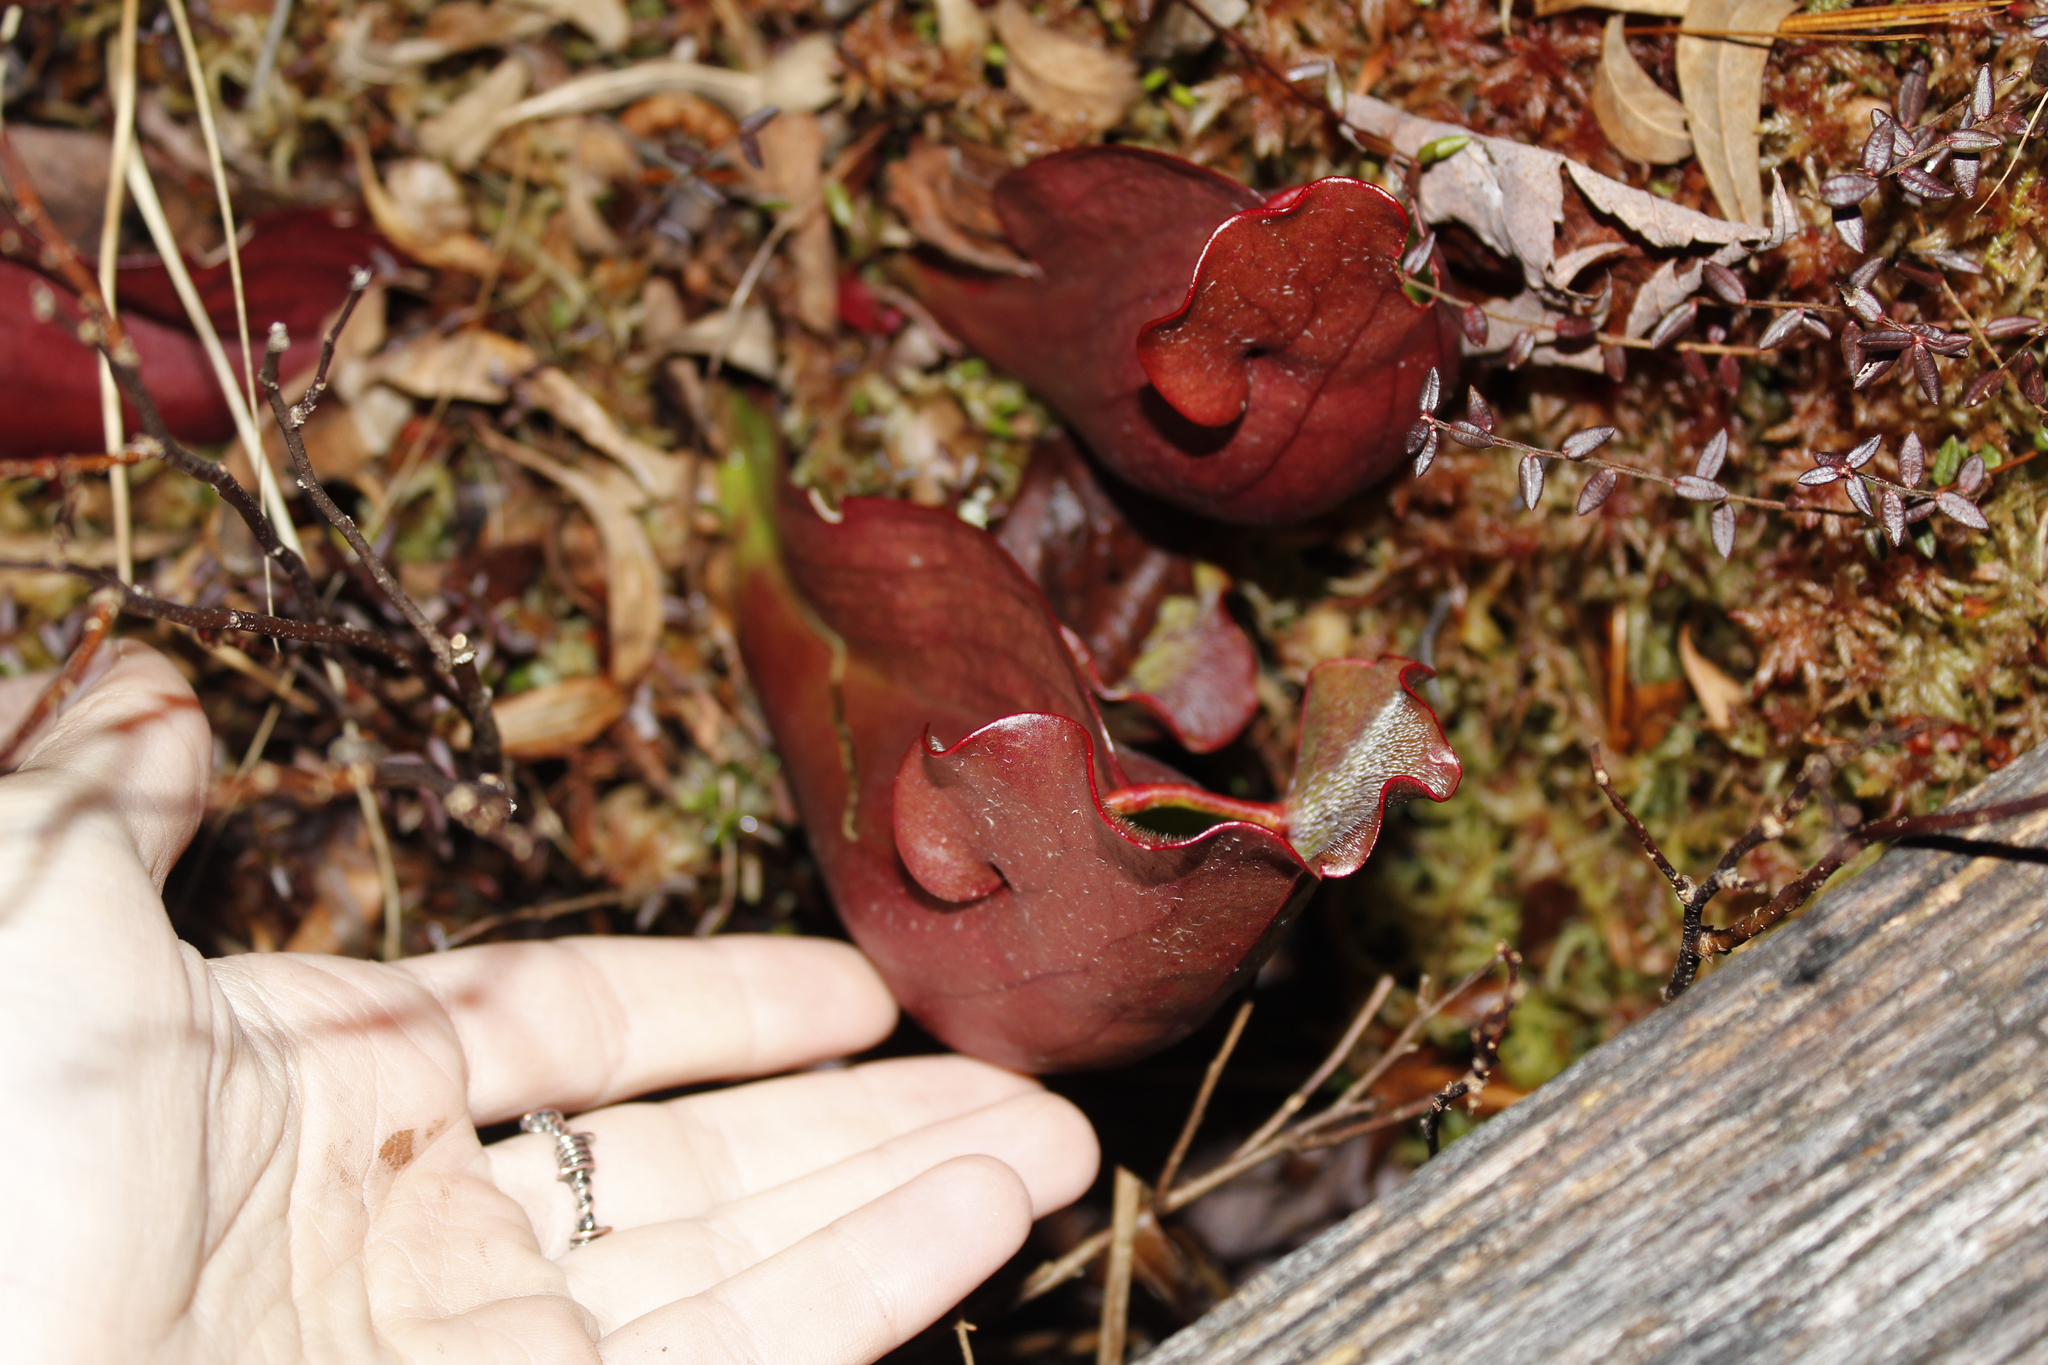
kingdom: Plantae
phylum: Tracheophyta
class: Magnoliopsida
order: Ericales
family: Sarraceniaceae
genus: Sarracenia
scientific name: Sarracenia purpurea
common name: Pitcherplant
